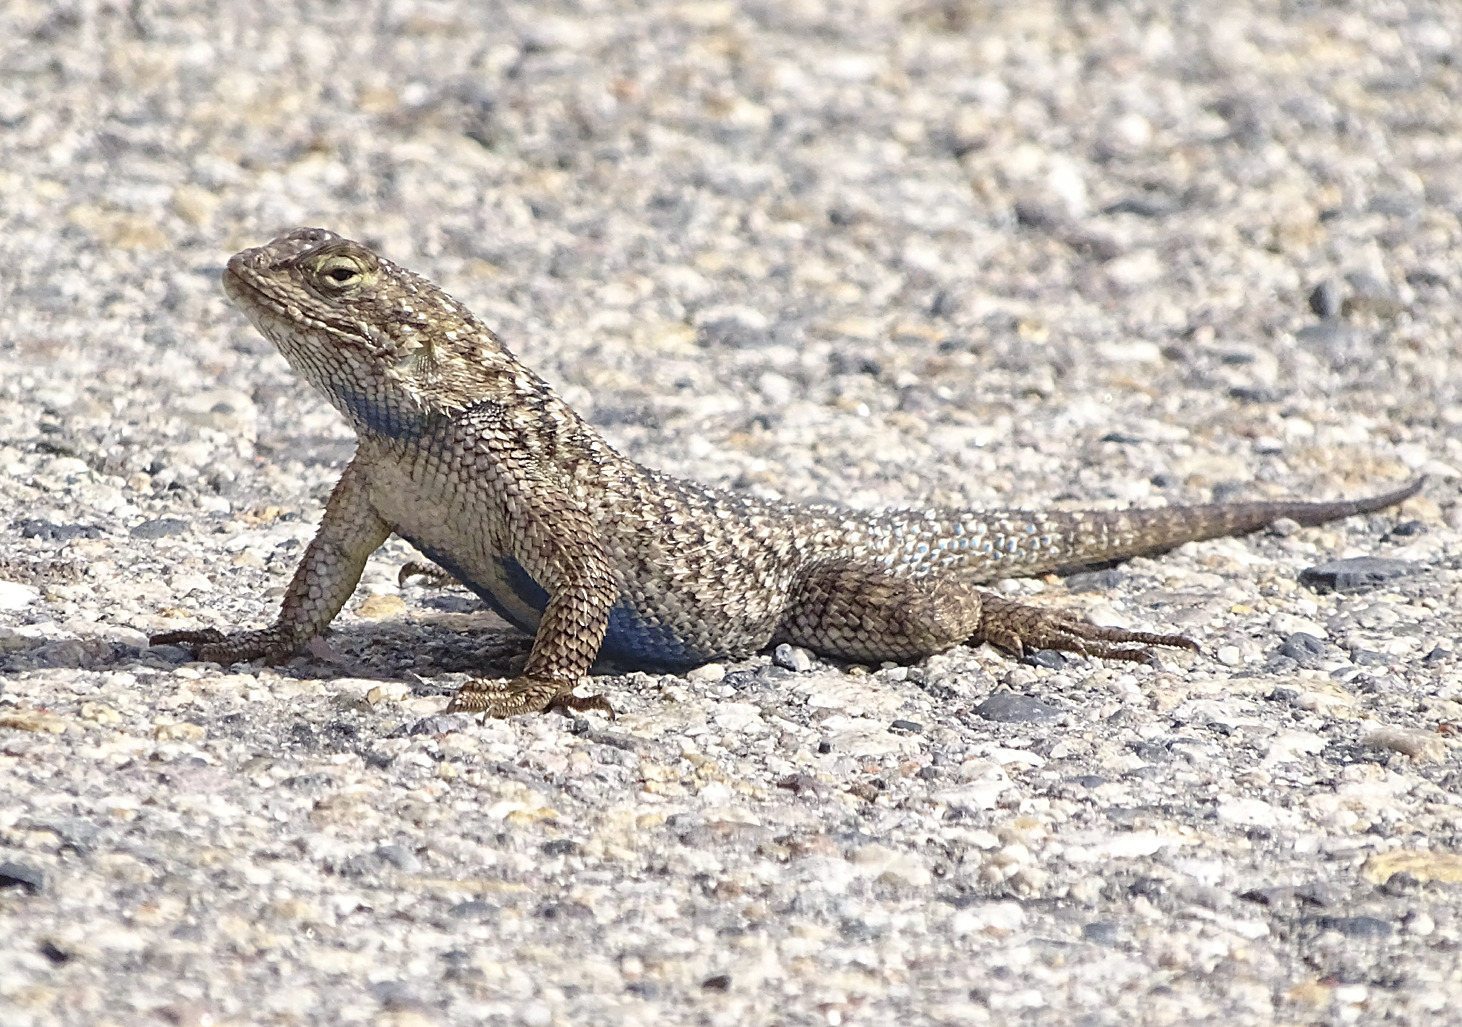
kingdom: Animalia
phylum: Chordata
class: Squamata
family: Phrynosomatidae
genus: Sceloporus
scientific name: Sceloporus occidentalis
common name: Western fence lizard
